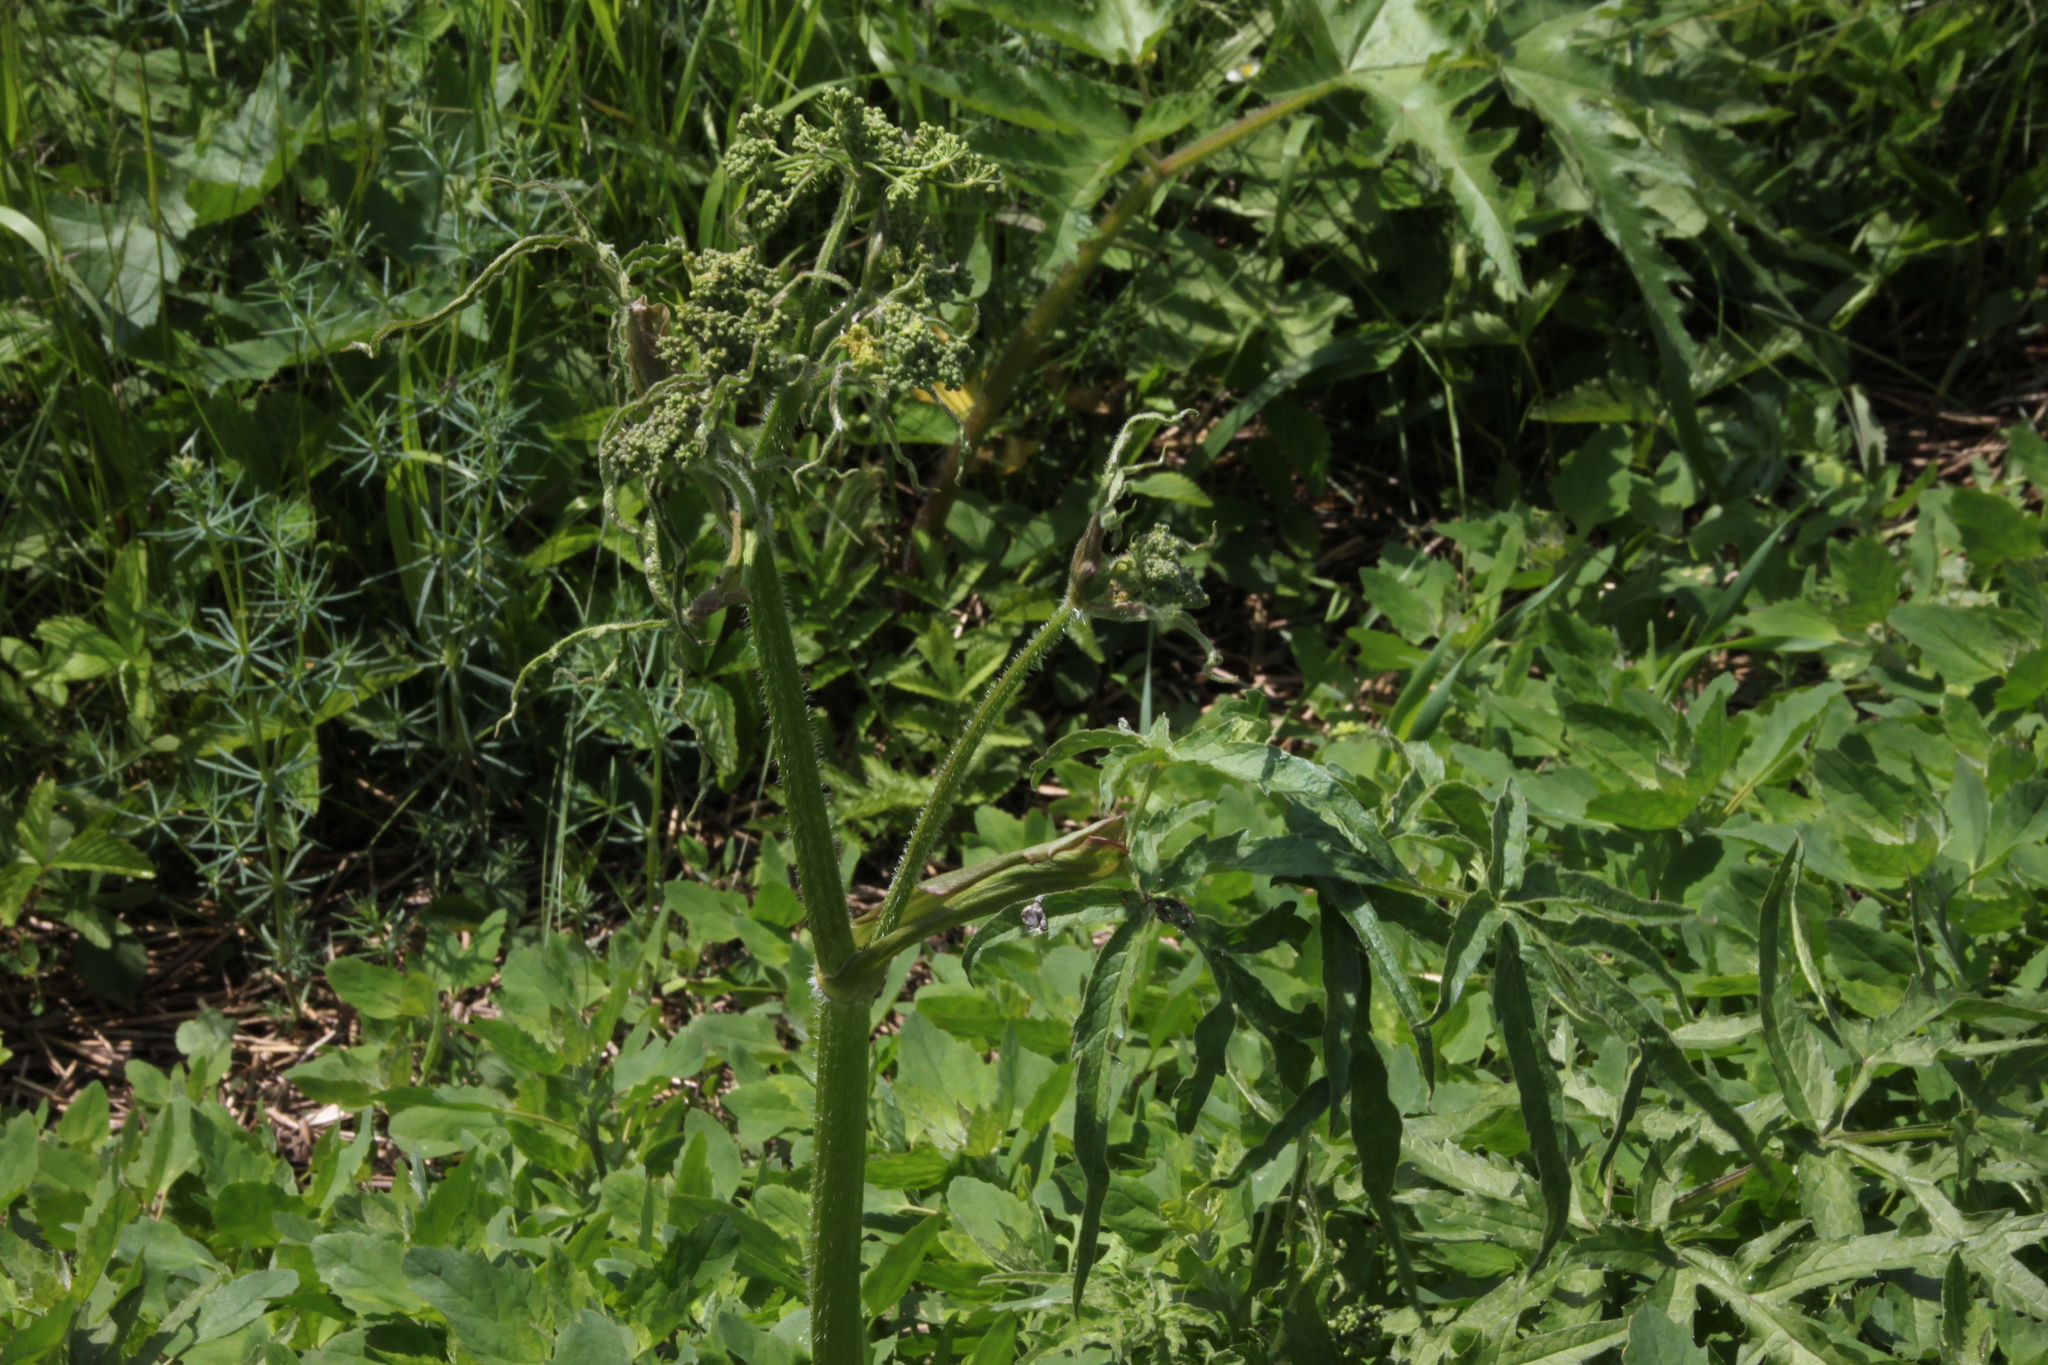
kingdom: Plantae
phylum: Tracheophyta
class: Magnoliopsida
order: Apiales
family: Apiaceae
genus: Heracleum
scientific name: Heracleum sphondylium
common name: Hogweed
